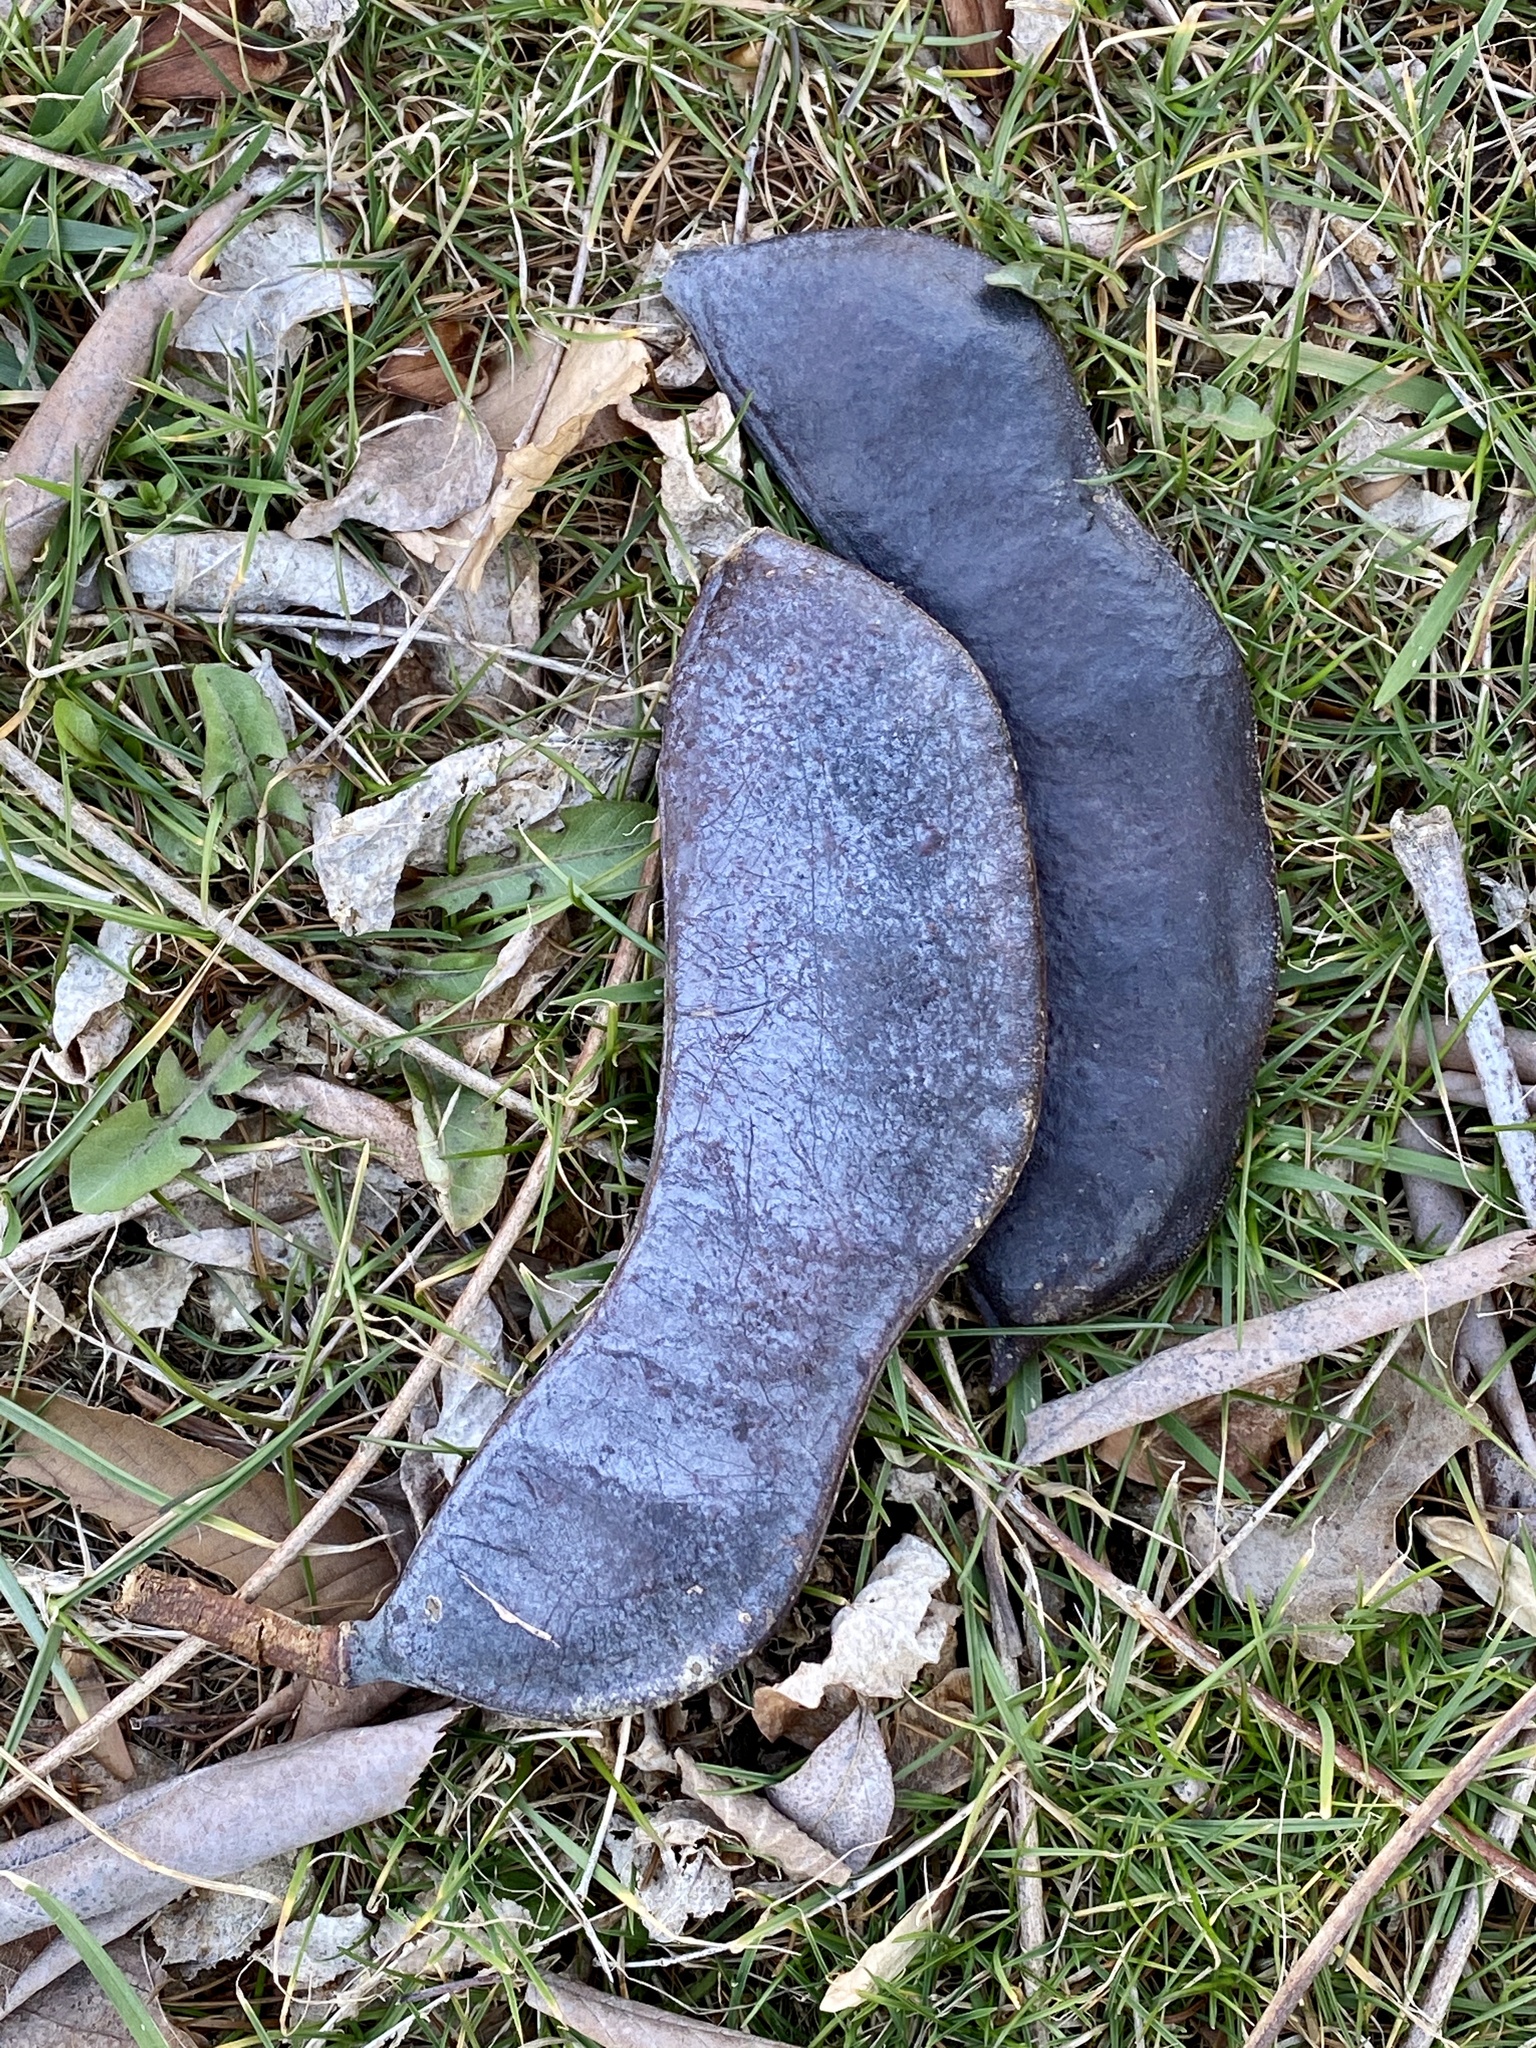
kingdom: Plantae
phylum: Tracheophyta
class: Magnoliopsida
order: Fabales
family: Fabaceae
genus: Gymnocladus
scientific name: Gymnocladus dioicus
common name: Kentucky coffee-tree
